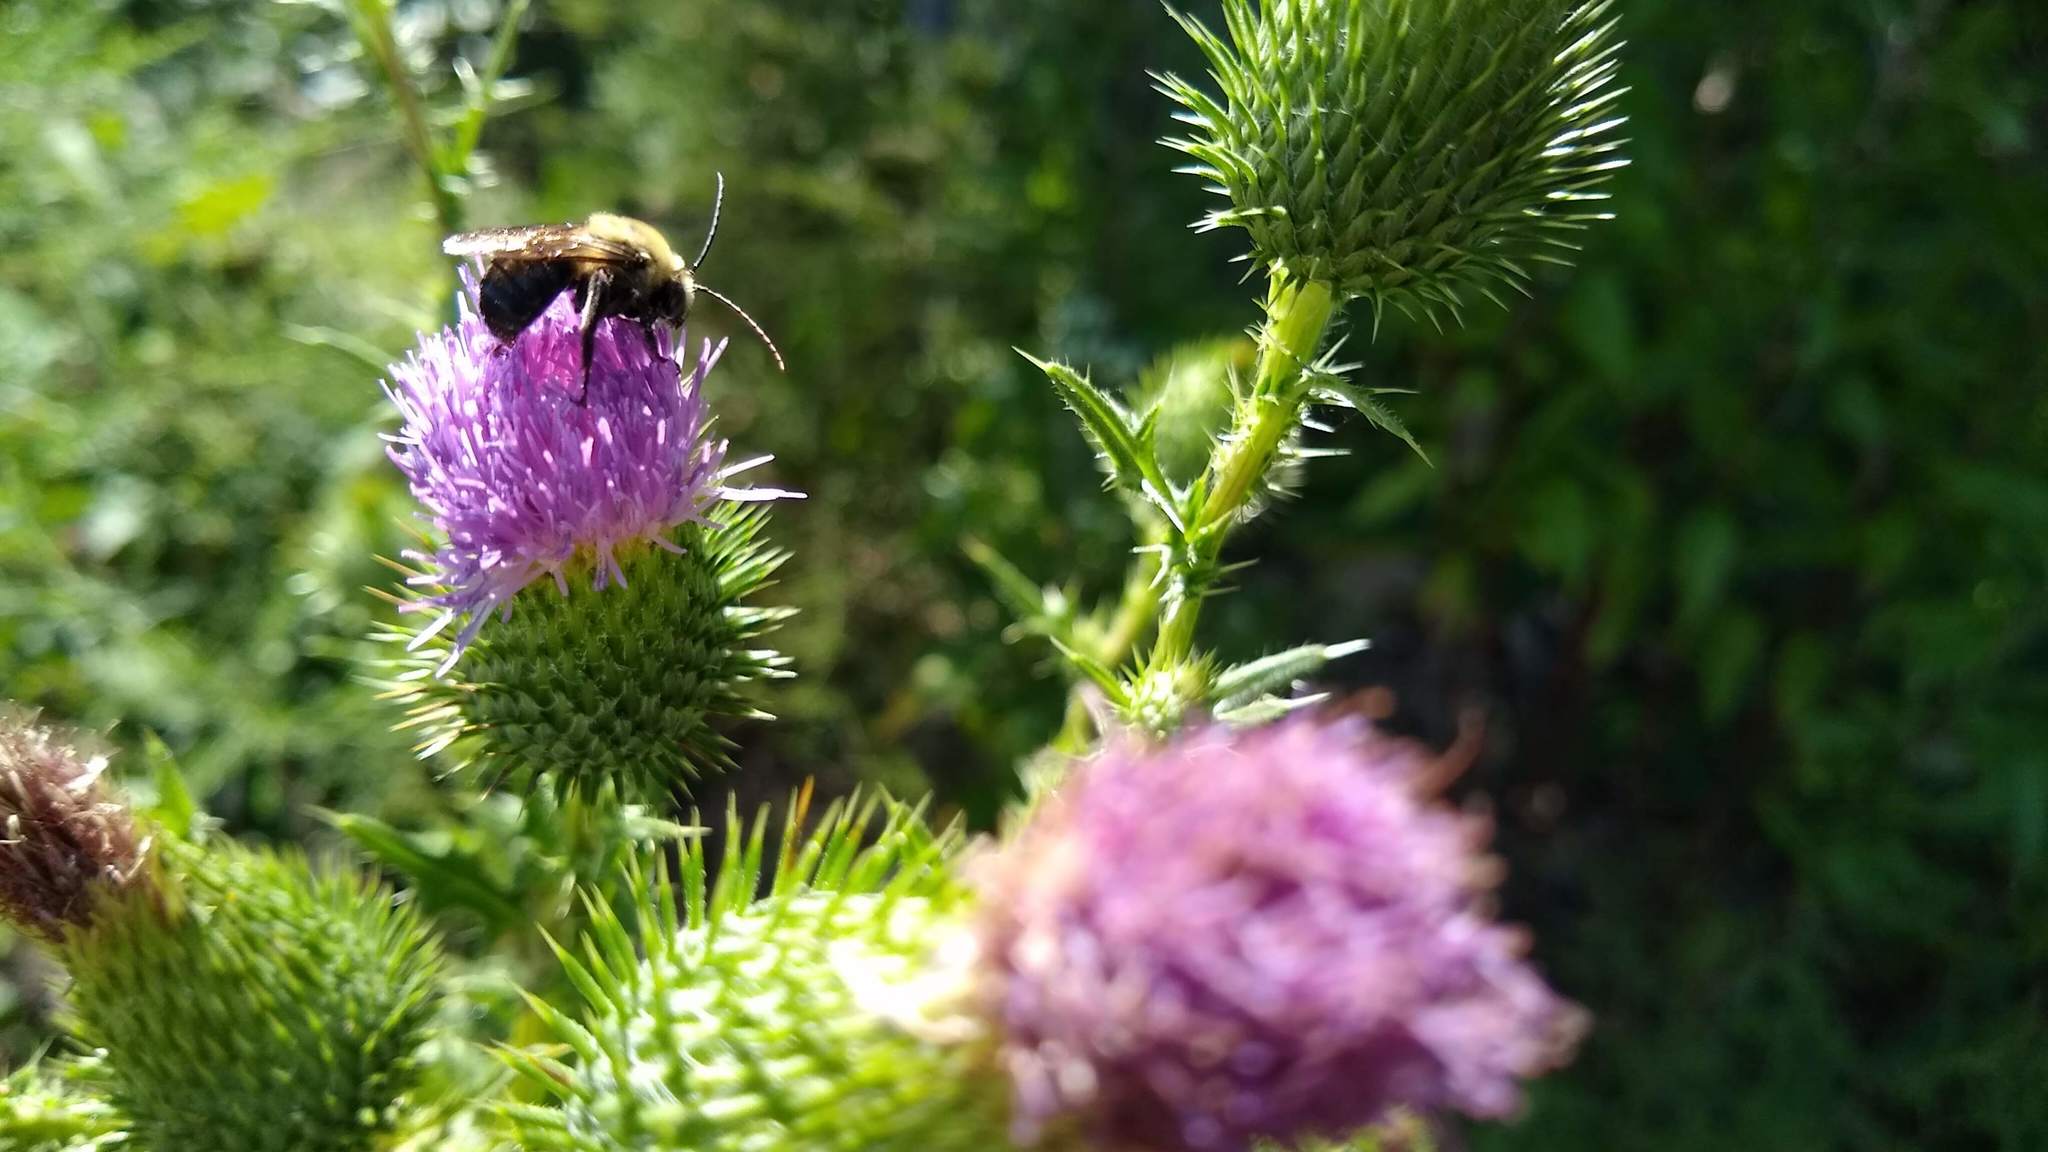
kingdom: Plantae
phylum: Tracheophyta
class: Magnoliopsida
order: Asterales
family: Asteraceae
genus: Cirsium
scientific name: Cirsium vulgare
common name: Bull thistle
